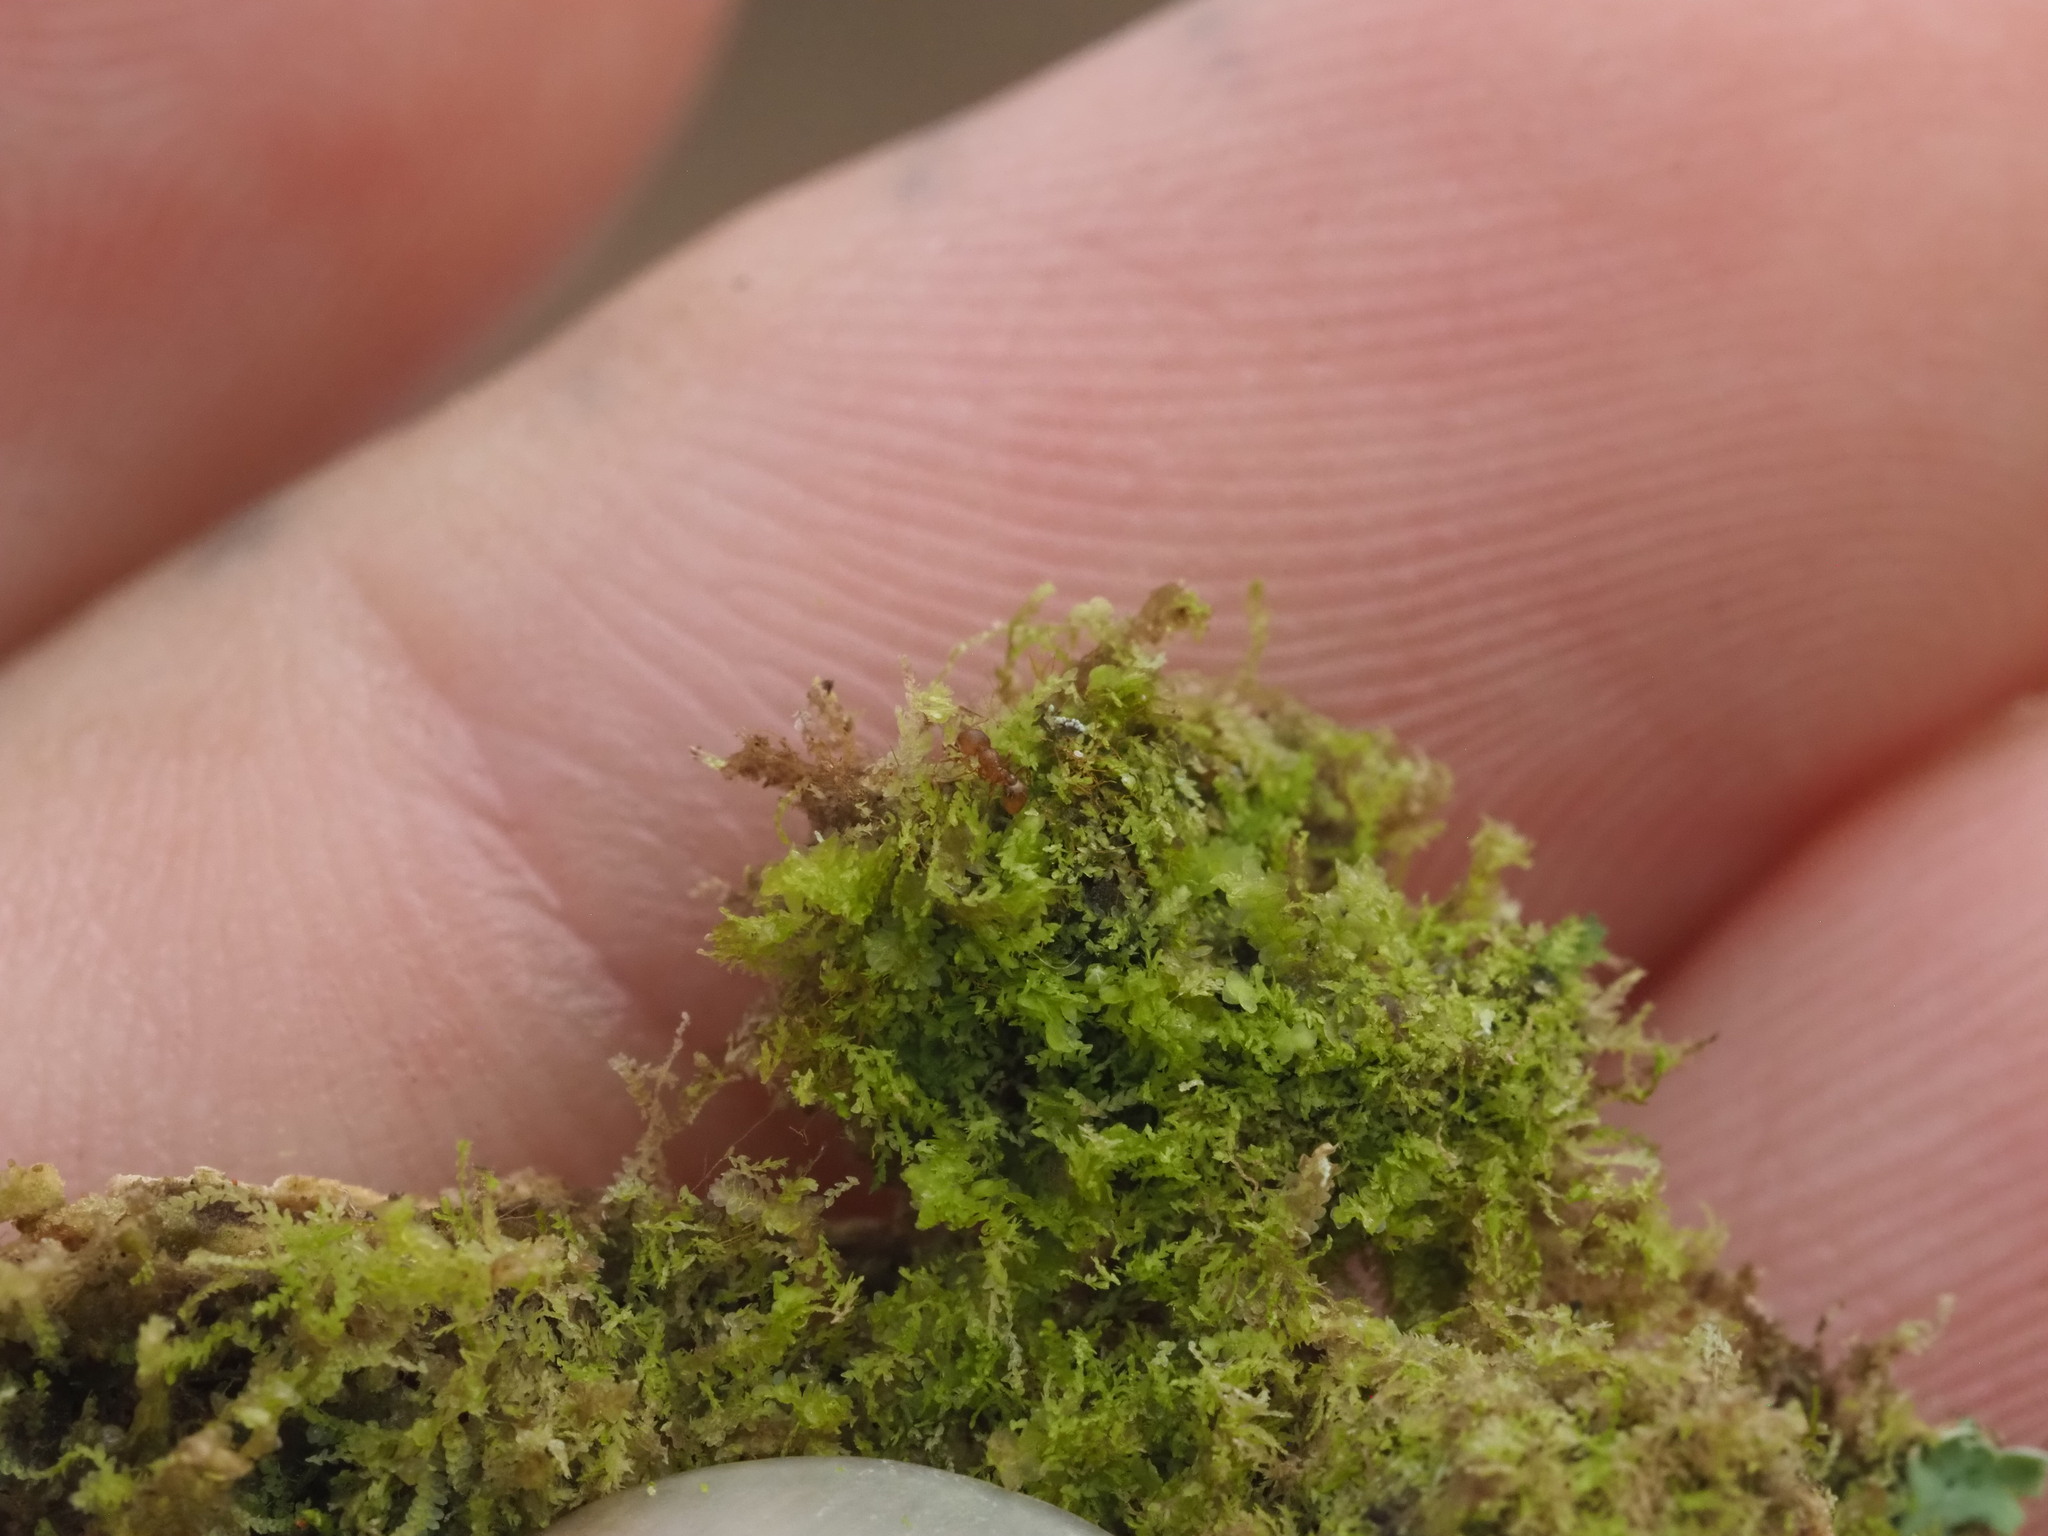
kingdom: Plantae
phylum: Marchantiophyta
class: Jungermanniopsida
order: Porellales
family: Lejeuneaceae
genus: Lejeunea
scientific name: Lejeunea laetevirens
